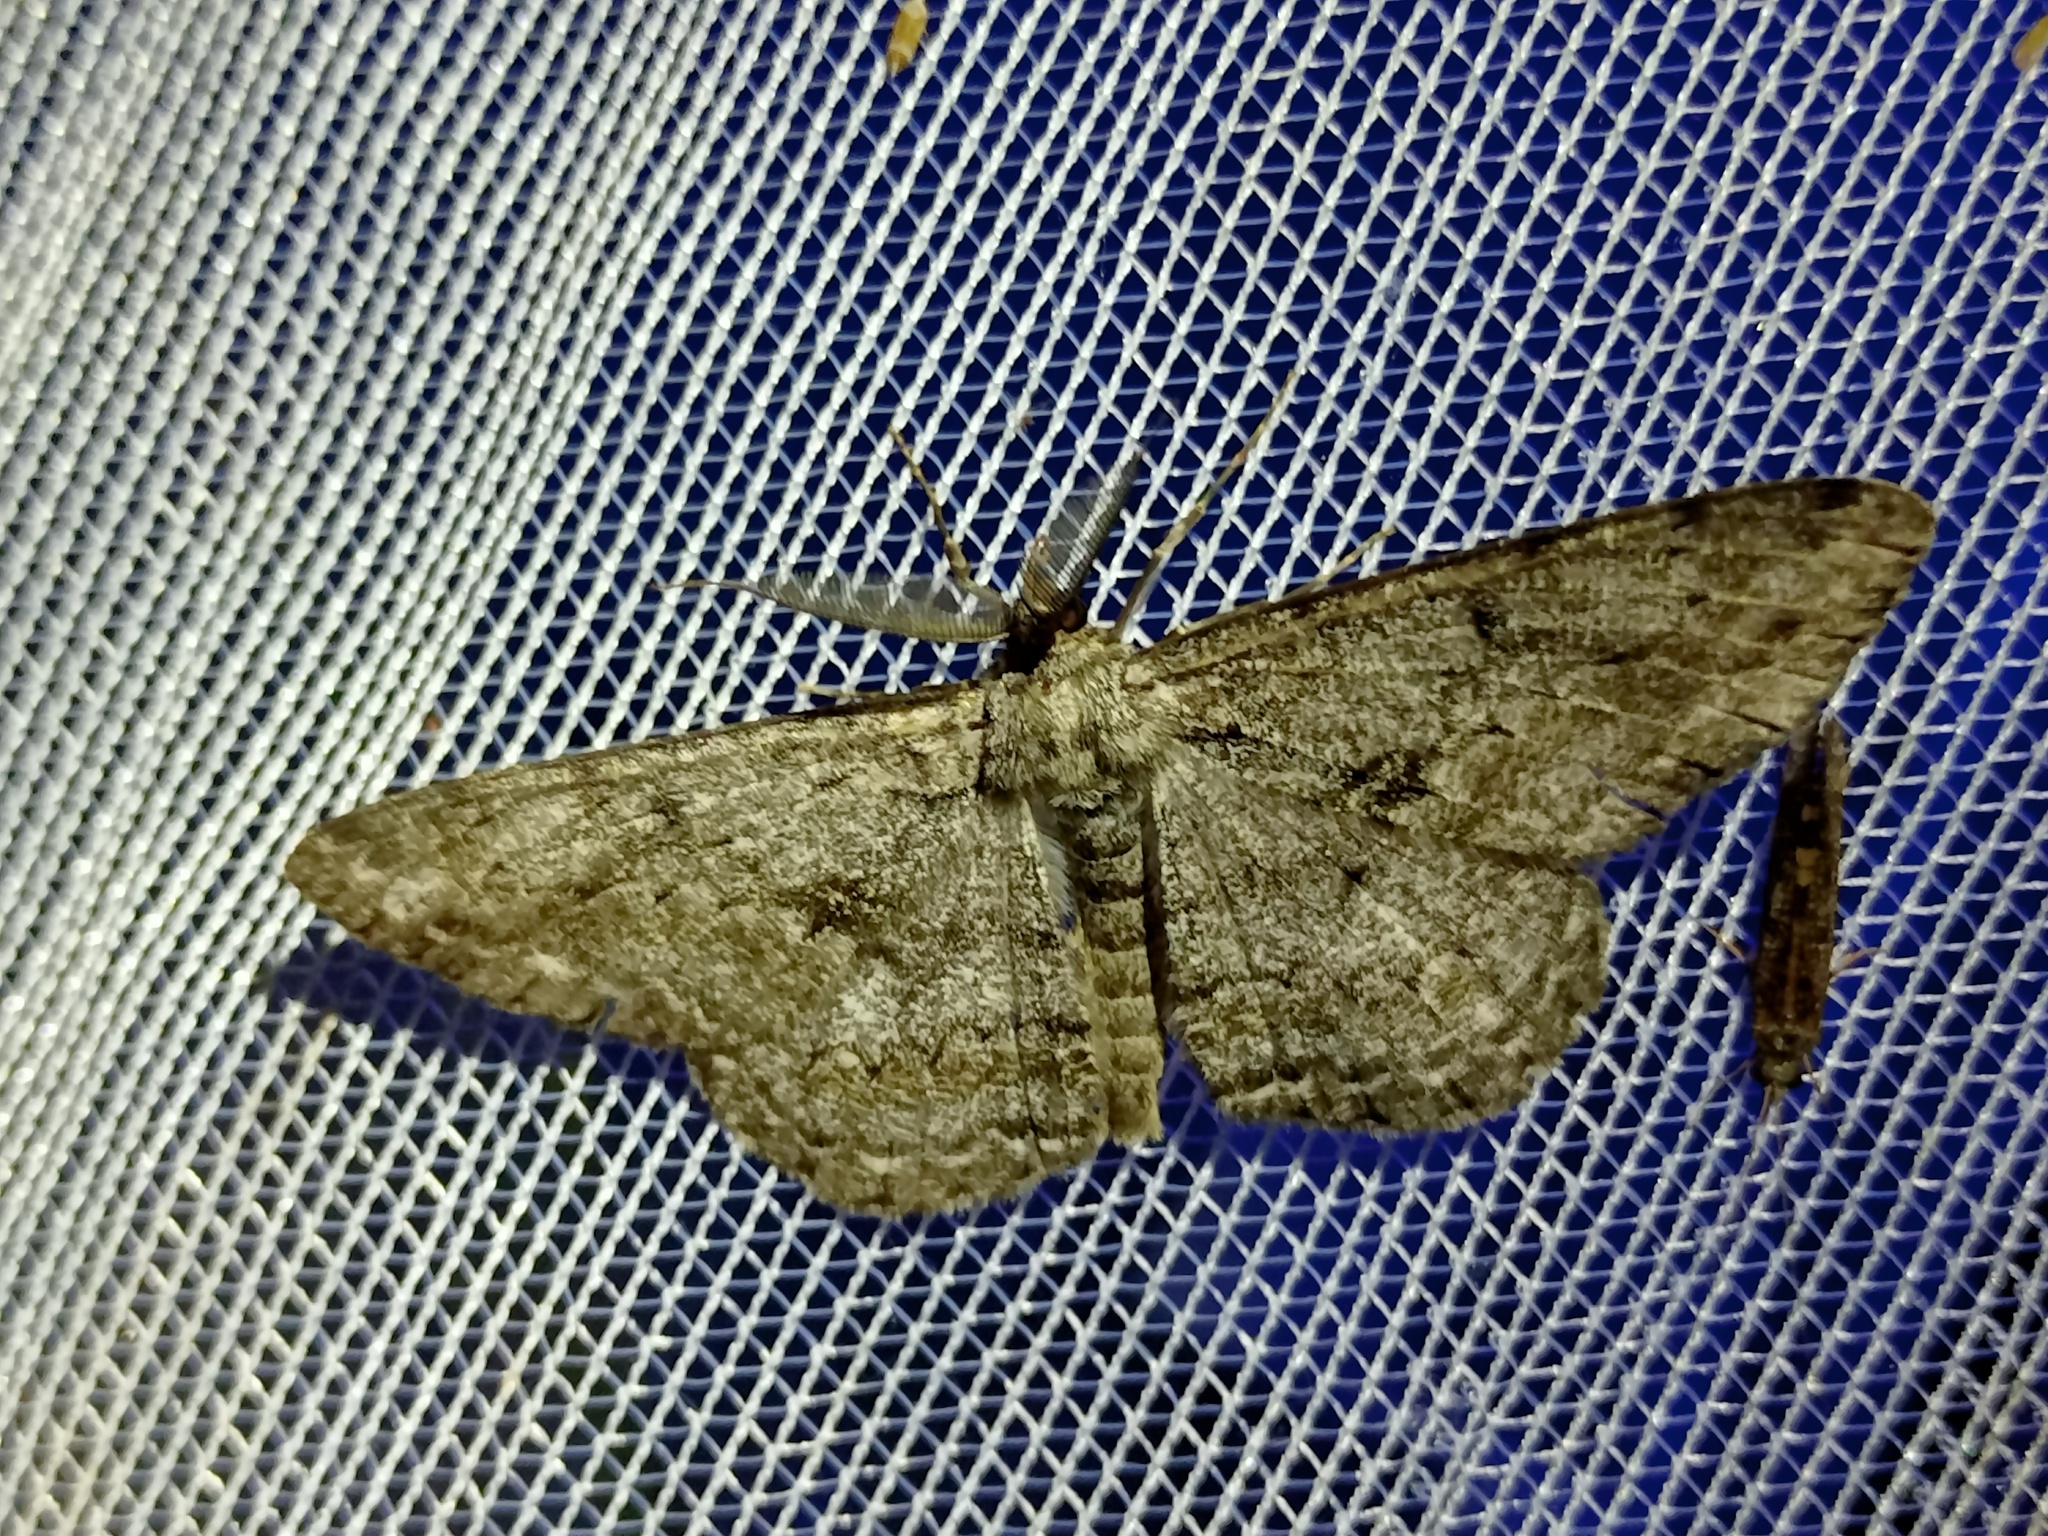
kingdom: Animalia
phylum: Arthropoda
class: Insecta
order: Lepidoptera
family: Geometridae
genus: Hypomecis
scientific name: Hypomecis roboraria
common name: Great oak beauty
